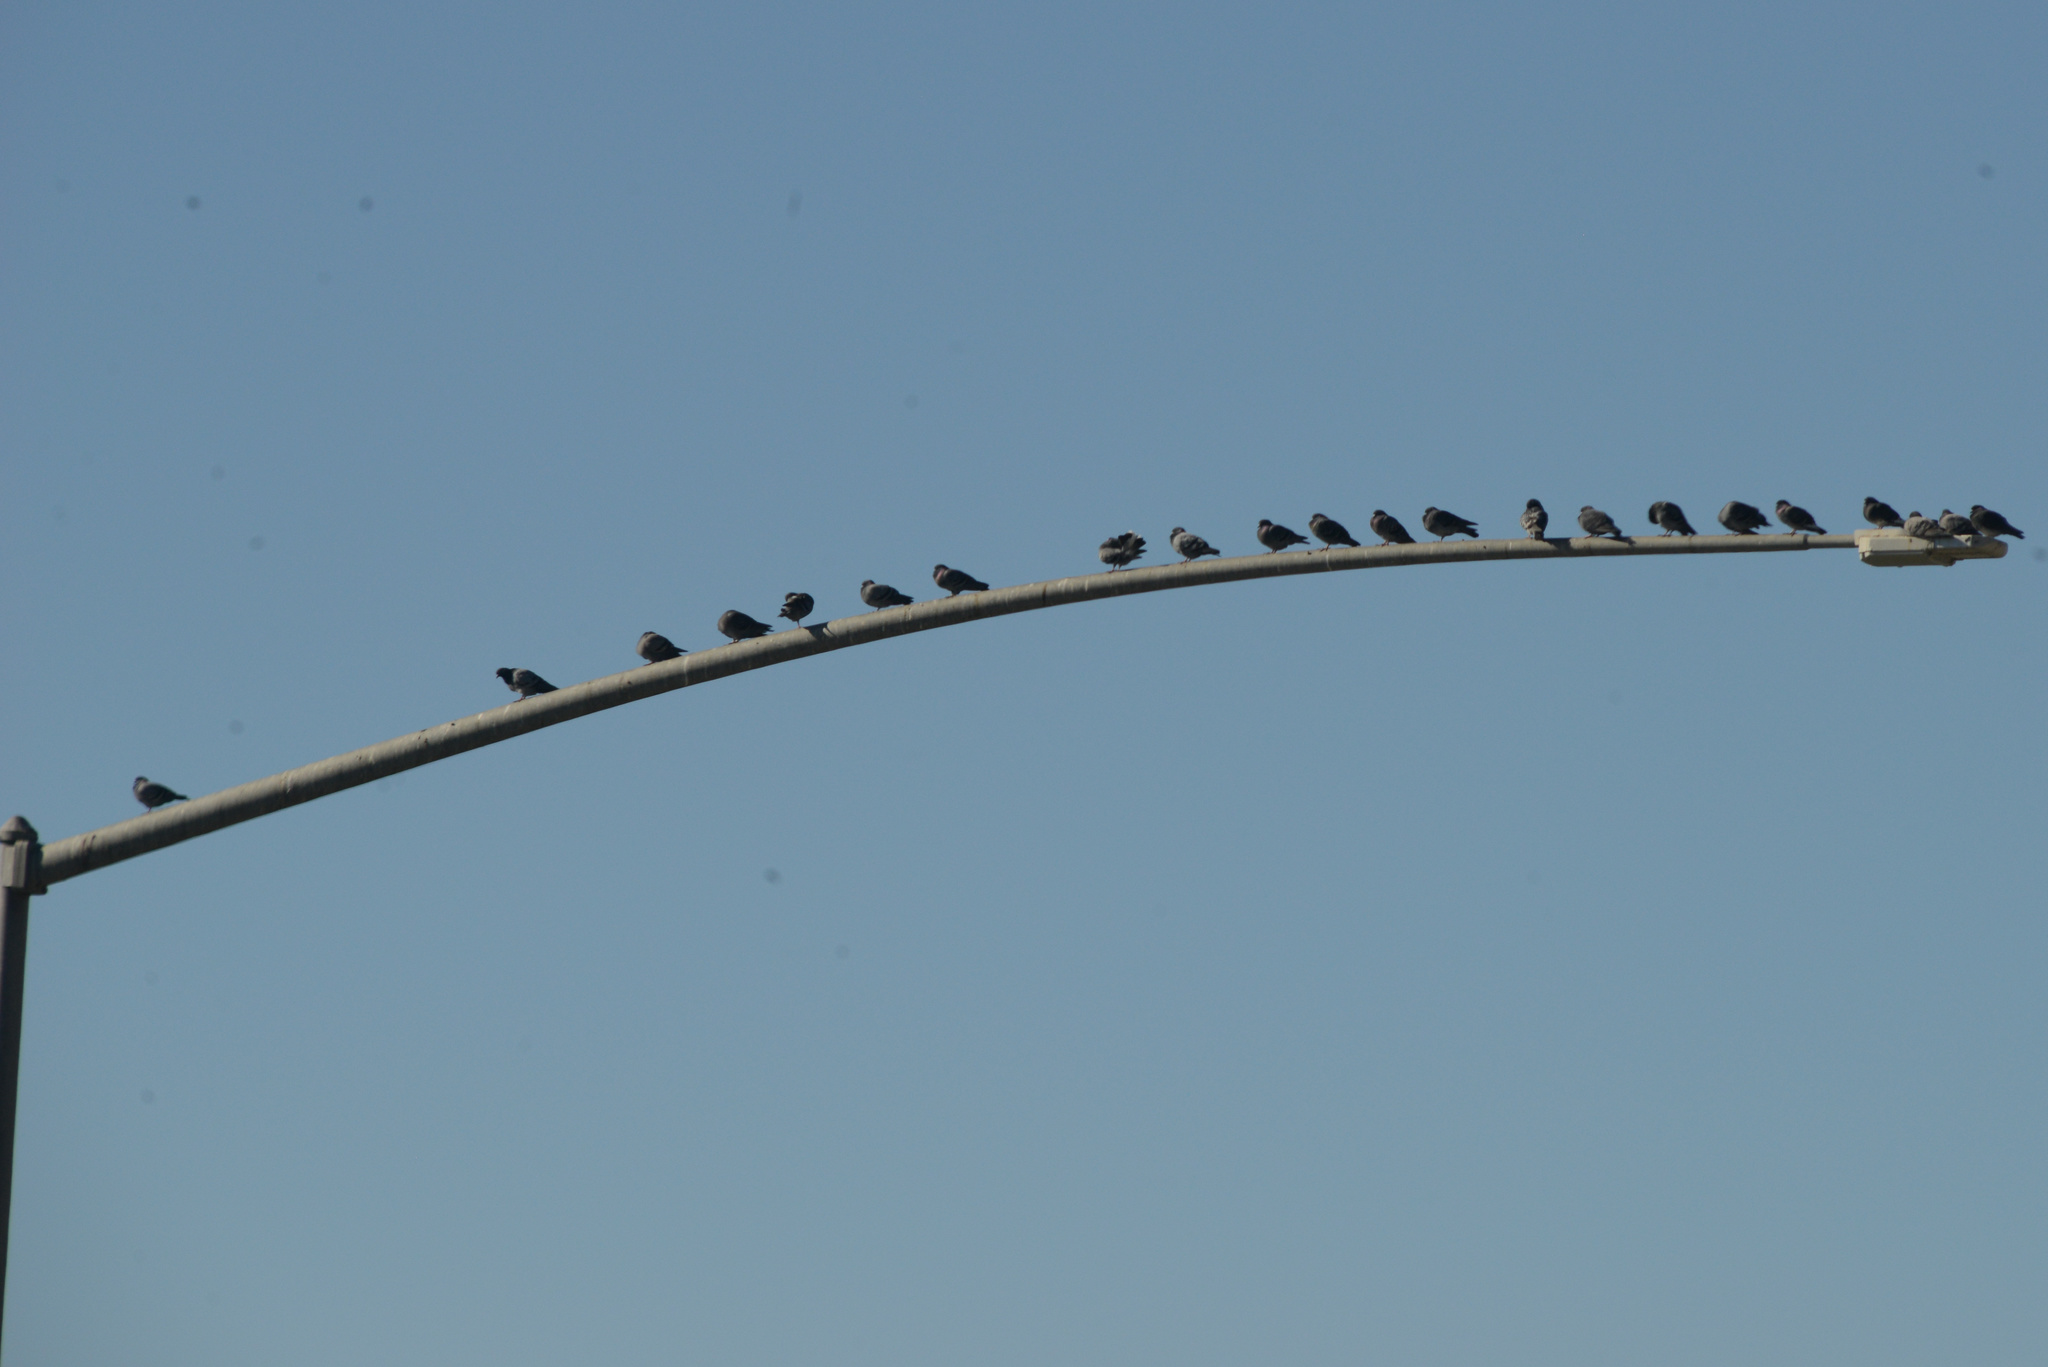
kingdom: Animalia
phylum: Chordata
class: Aves
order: Columbiformes
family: Columbidae
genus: Columba
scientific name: Columba livia
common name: Rock pigeon
